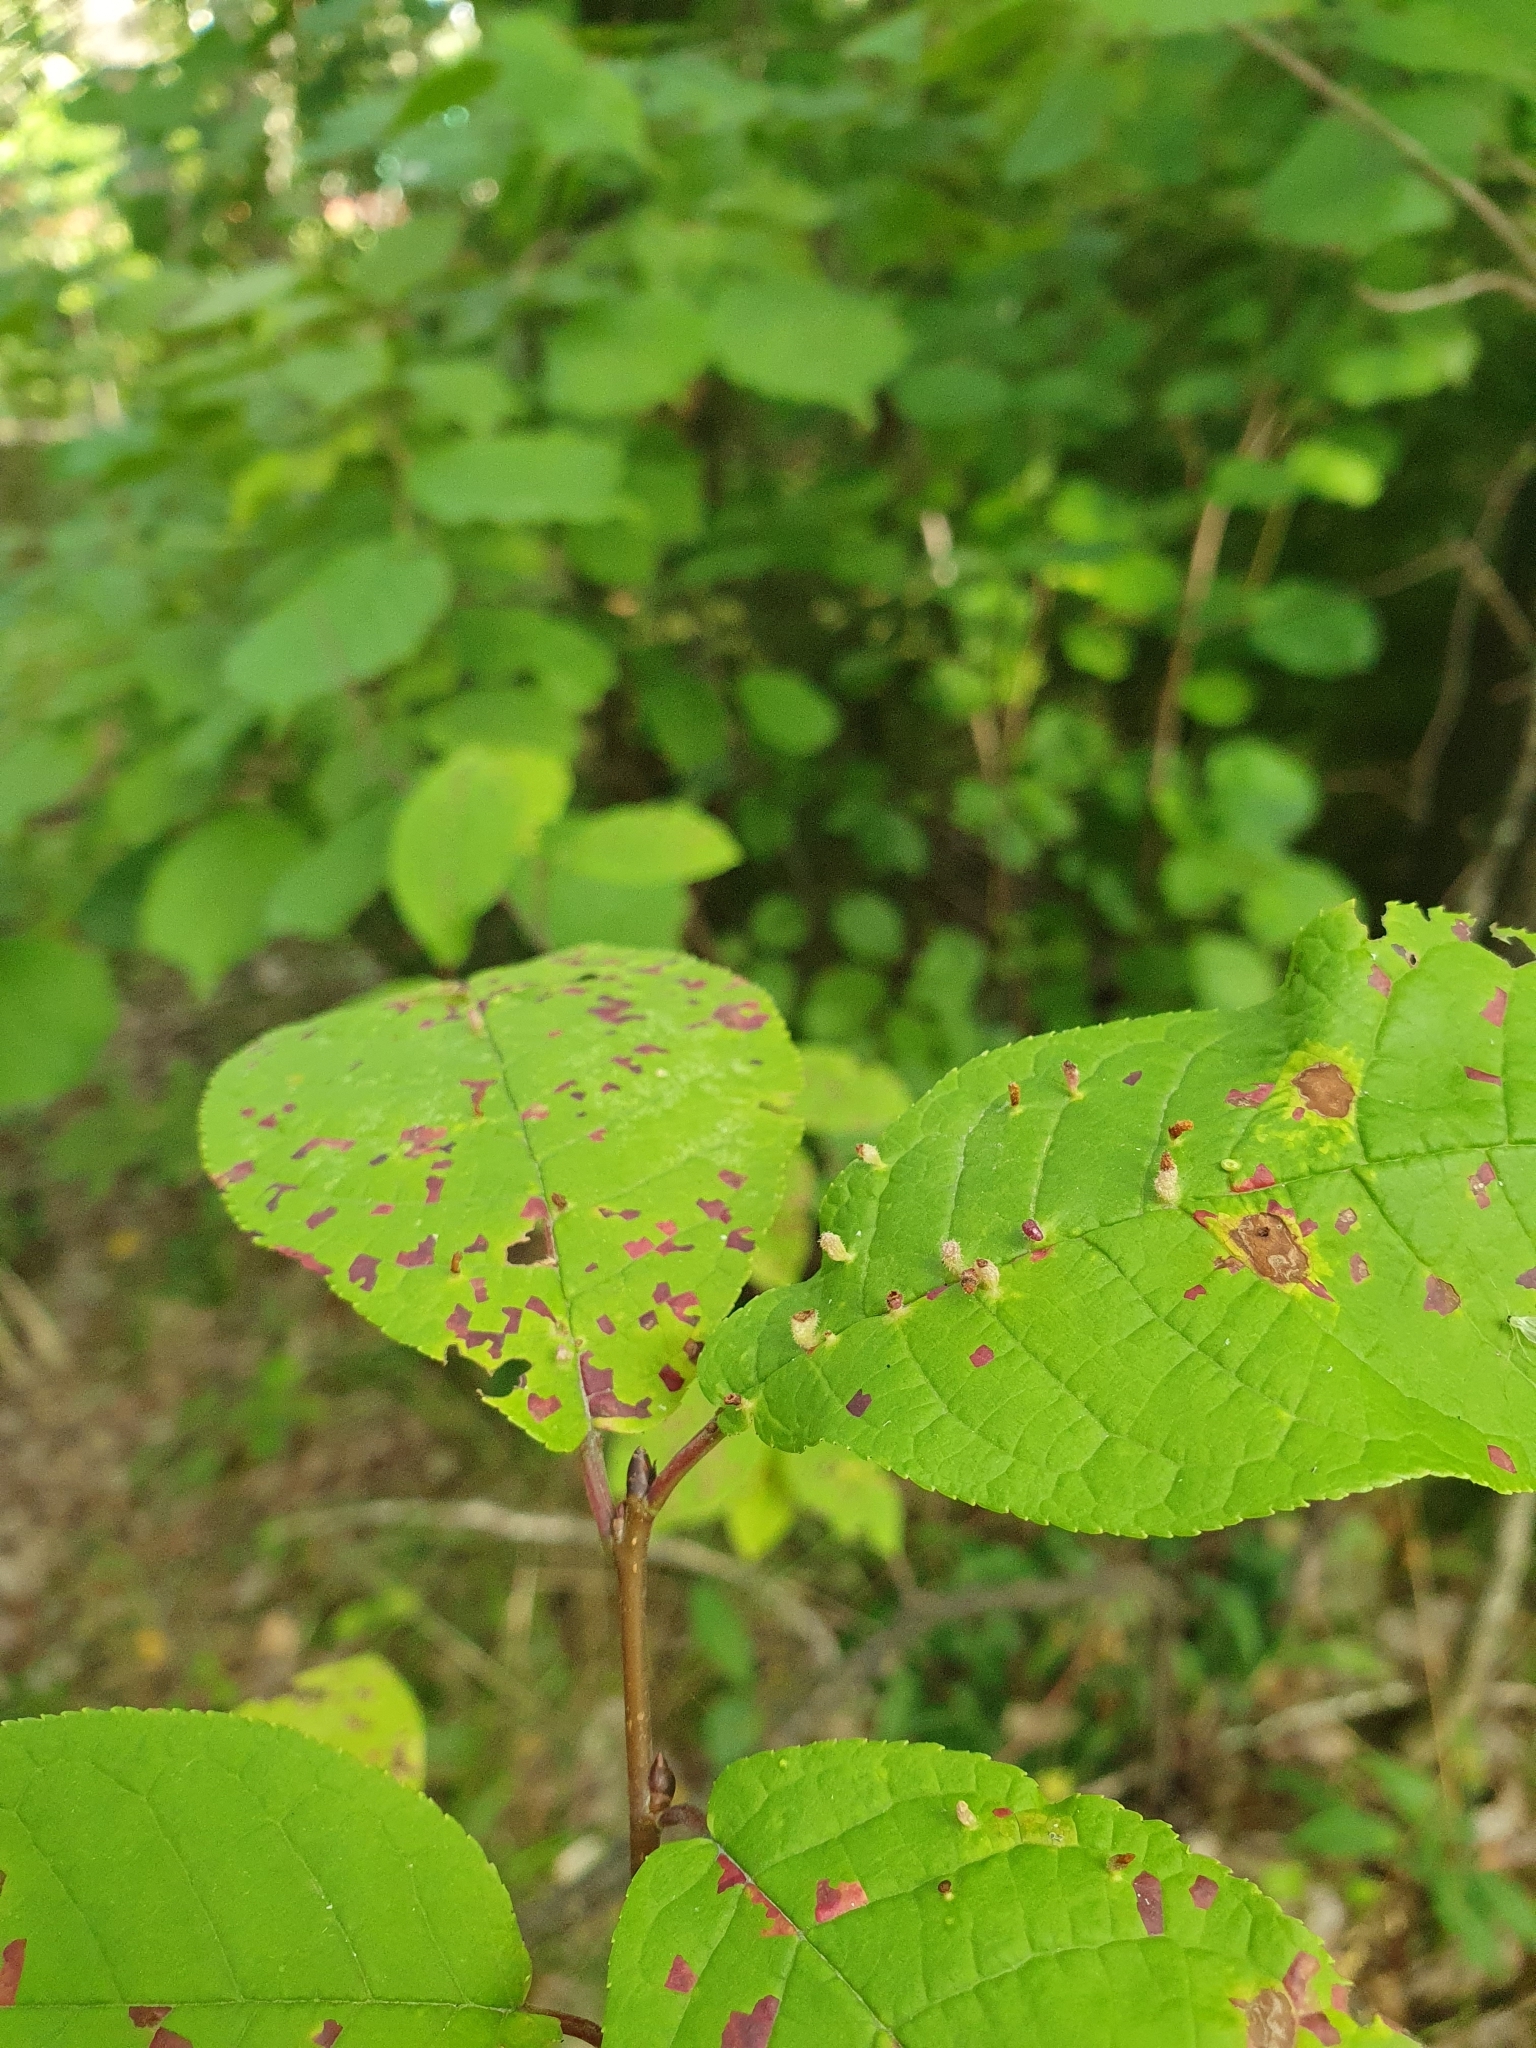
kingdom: Animalia
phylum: Arthropoda
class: Arachnida
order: Trombidiformes
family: Eriophyidae
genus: Phyllocoptes
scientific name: Phyllocoptes eupadi
